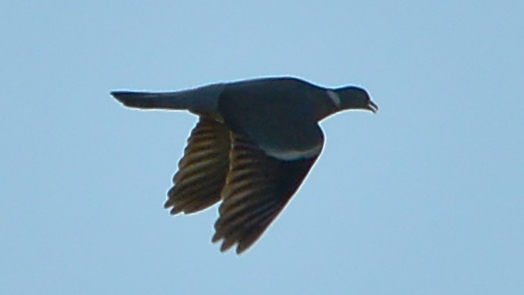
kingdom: Animalia
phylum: Chordata
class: Aves
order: Columbiformes
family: Columbidae
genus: Columba
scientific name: Columba palumbus
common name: Common wood pigeon
